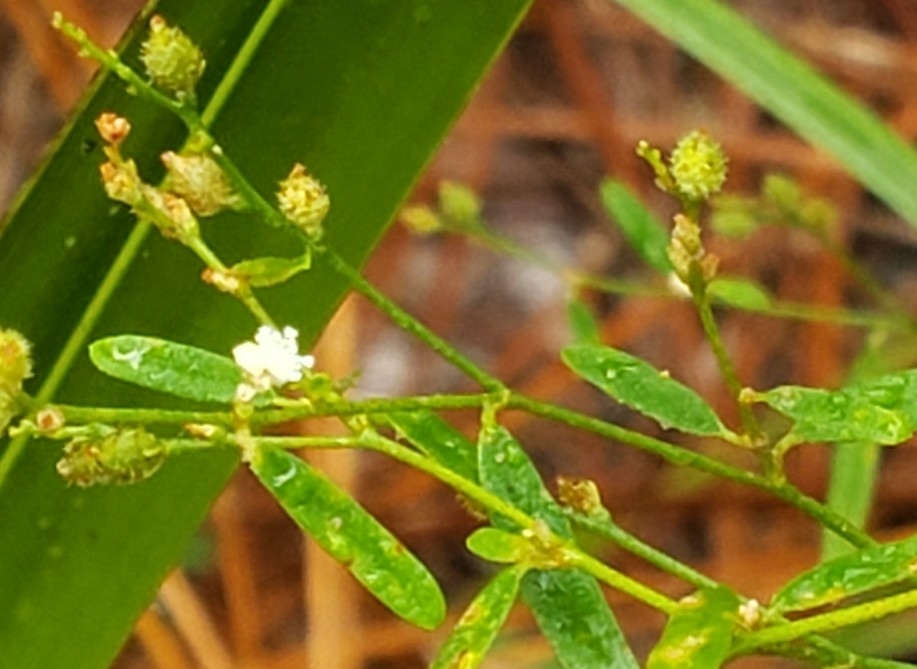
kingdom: Plantae
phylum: Tracheophyta
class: Magnoliopsida
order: Malpighiales
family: Euphorbiaceae
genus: Croton
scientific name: Croton michauxii
